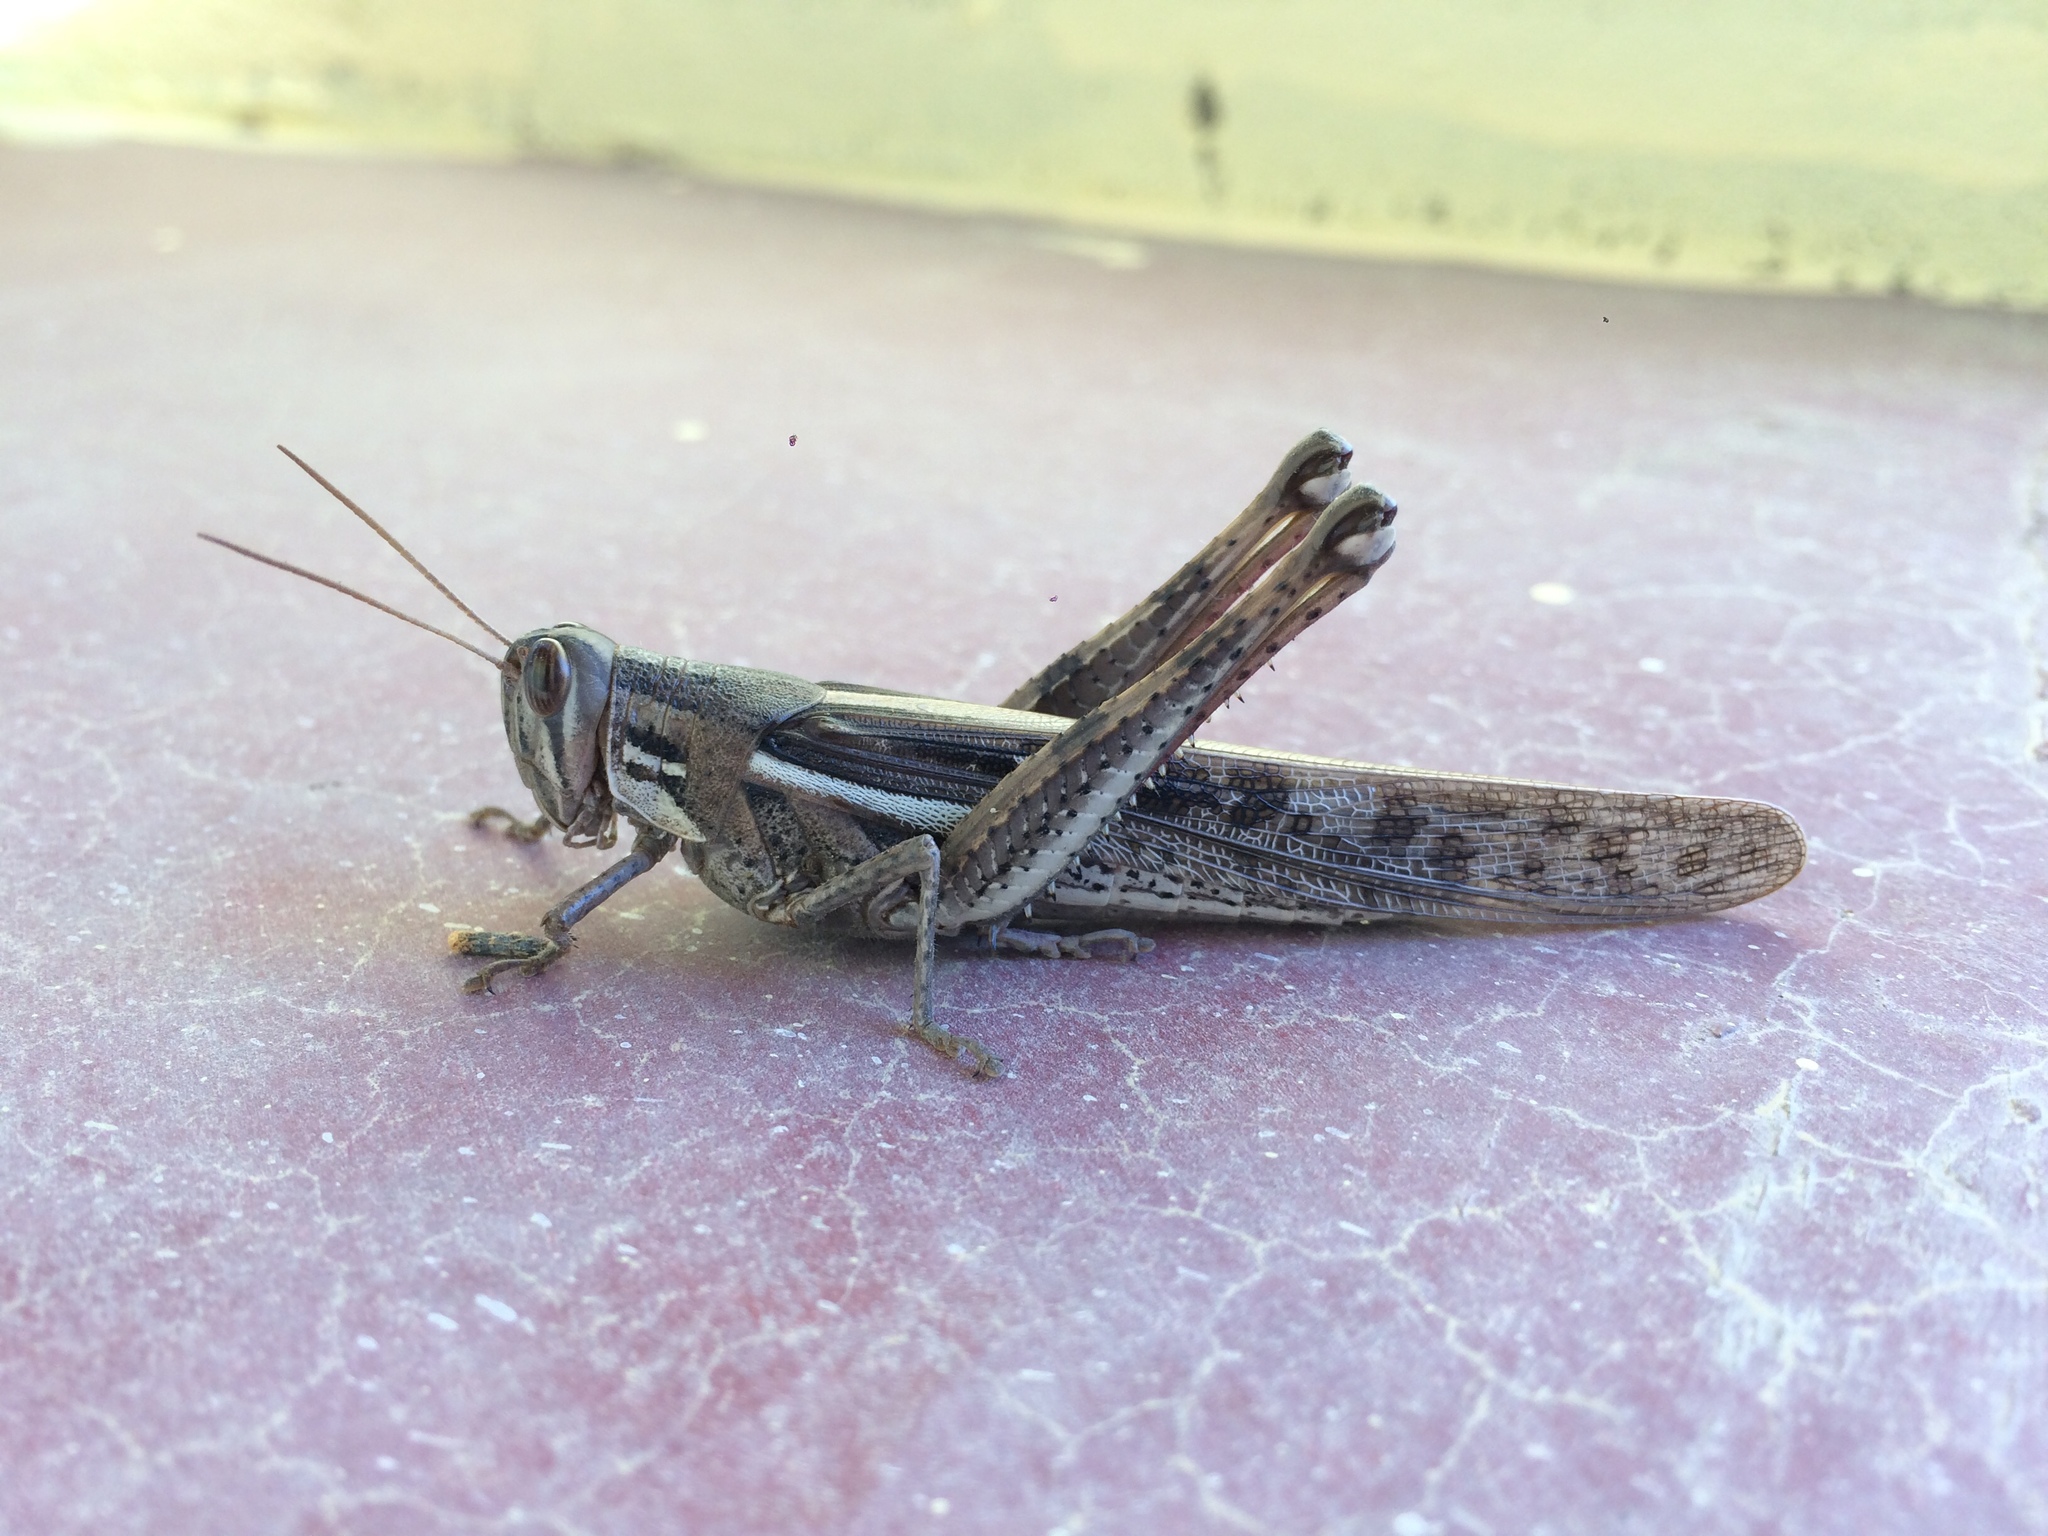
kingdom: Animalia
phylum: Arthropoda
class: Insecta
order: Orthoptera
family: Acrididae
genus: Schistocerca
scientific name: Schistocerca cancellata
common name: South american locust
